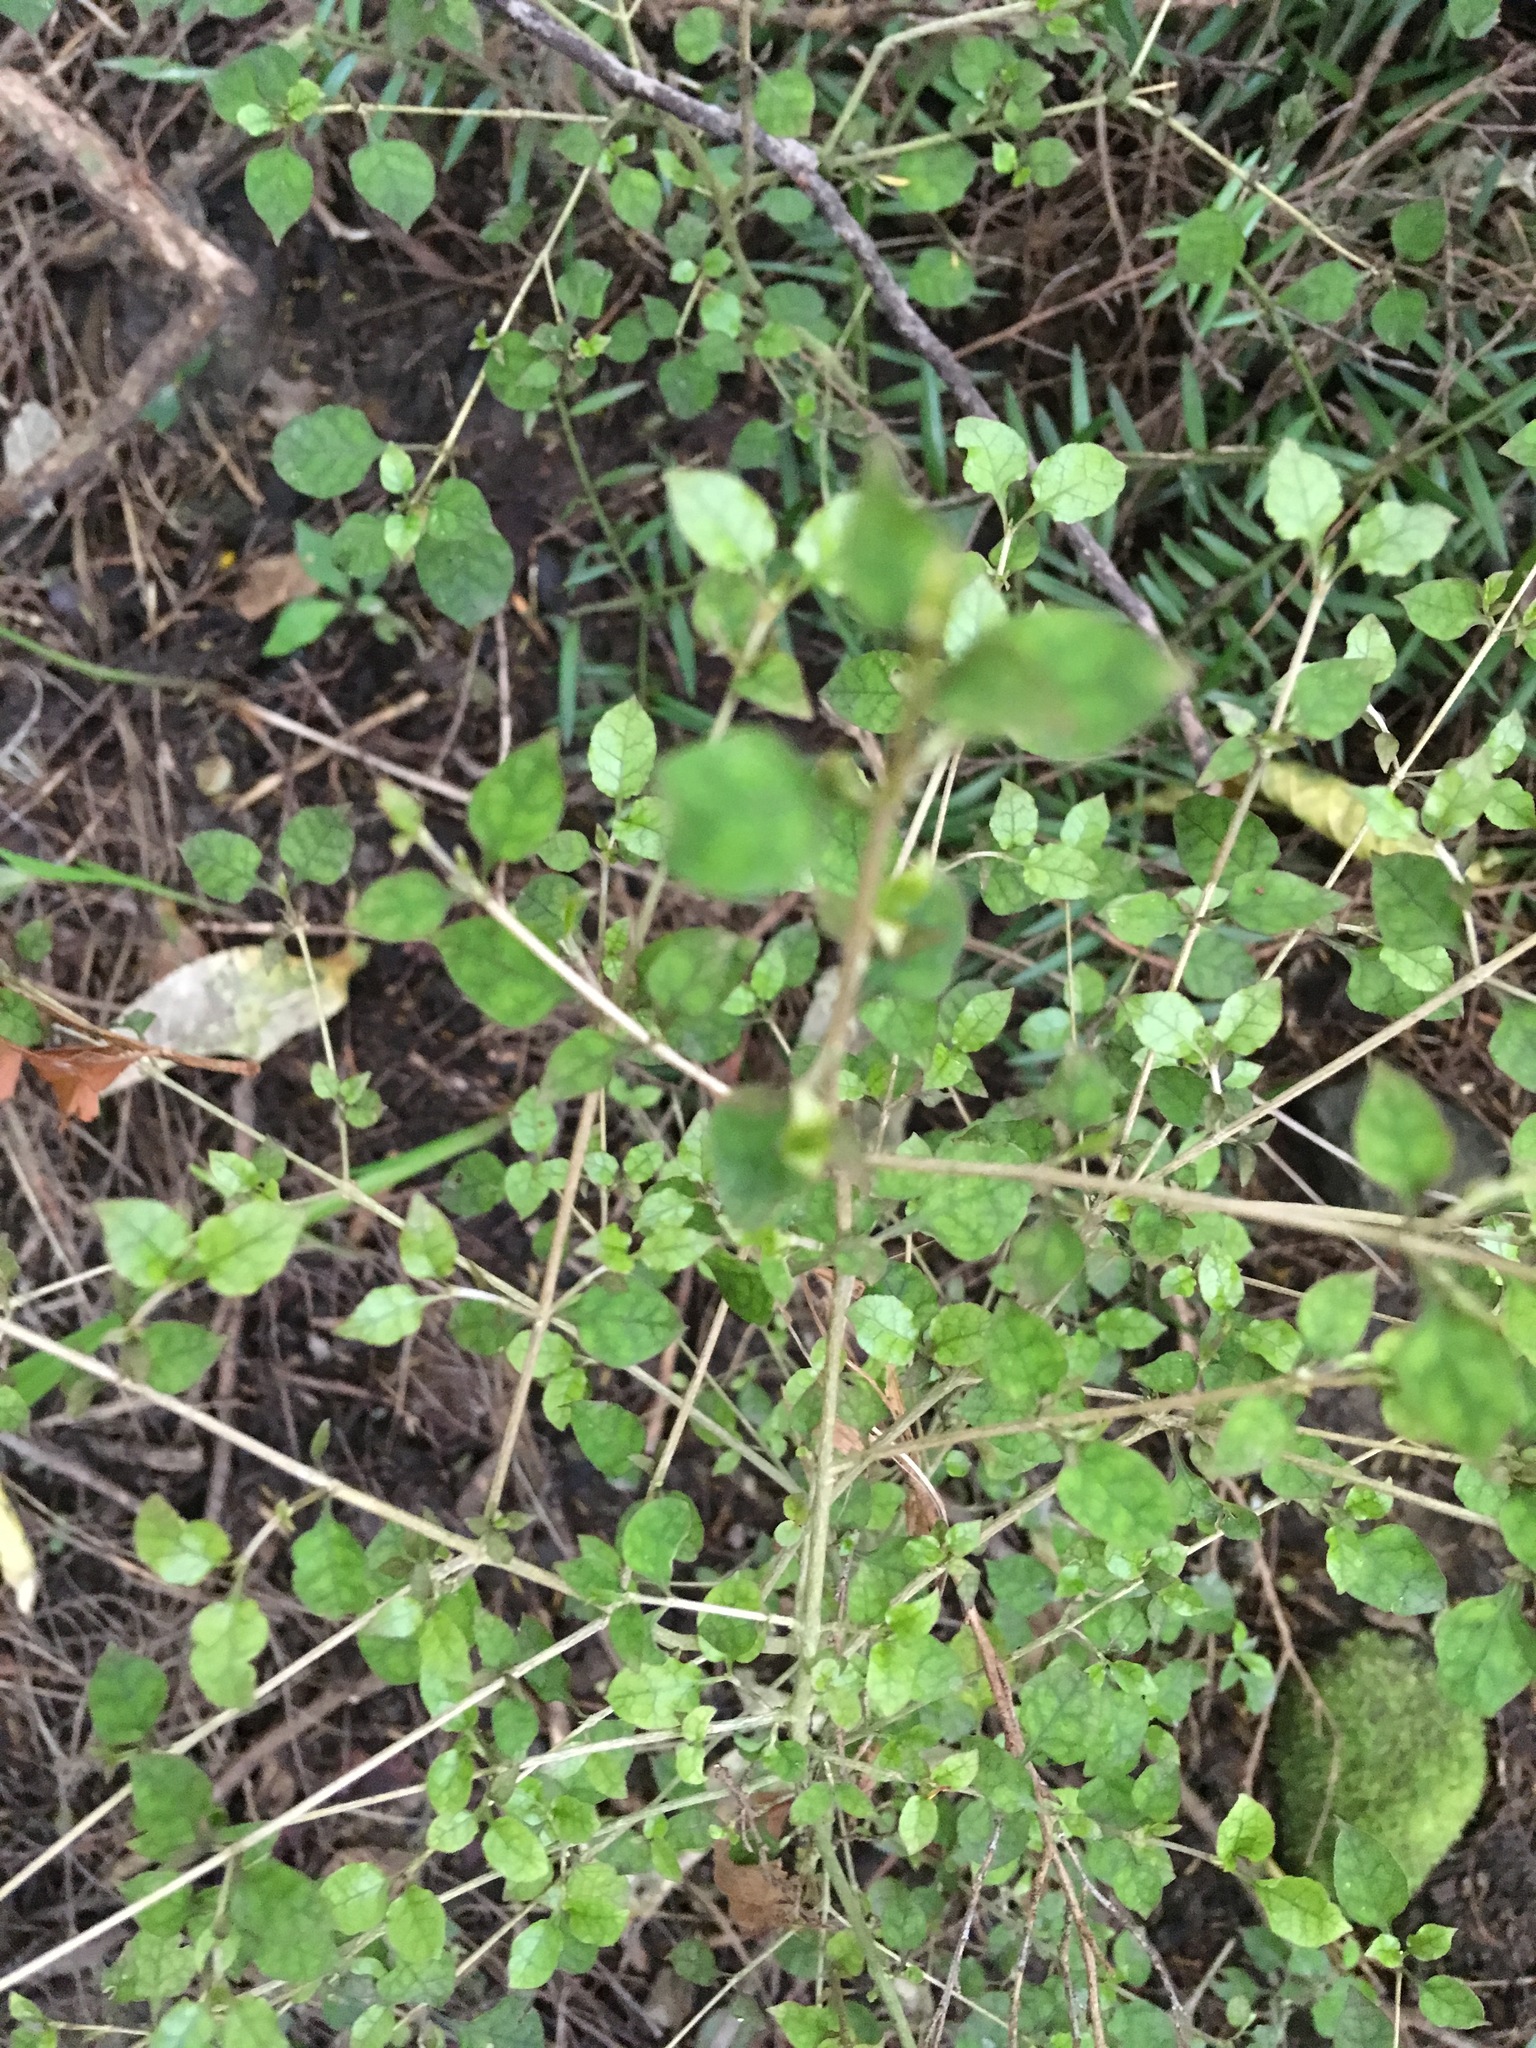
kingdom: Plantae
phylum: Tracheophyta
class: Magnoliopsida
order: Gentianales
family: Rubiaceae
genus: Coprosma
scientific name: Coprosma areolata
